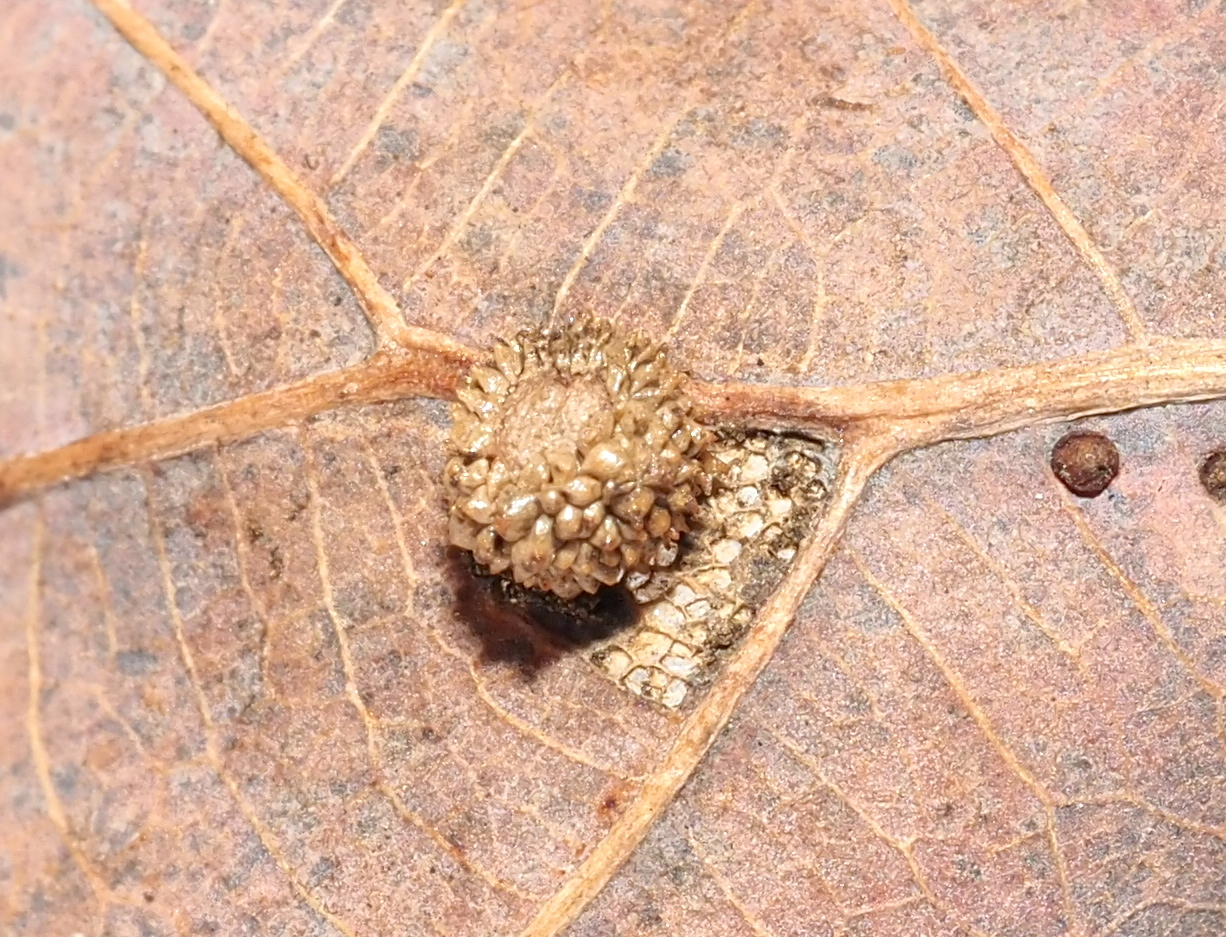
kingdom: Animalia
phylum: Arthropoda
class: Insecta
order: Hymenoptera
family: Cynipidae
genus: Acraspis
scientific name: Acraspis
